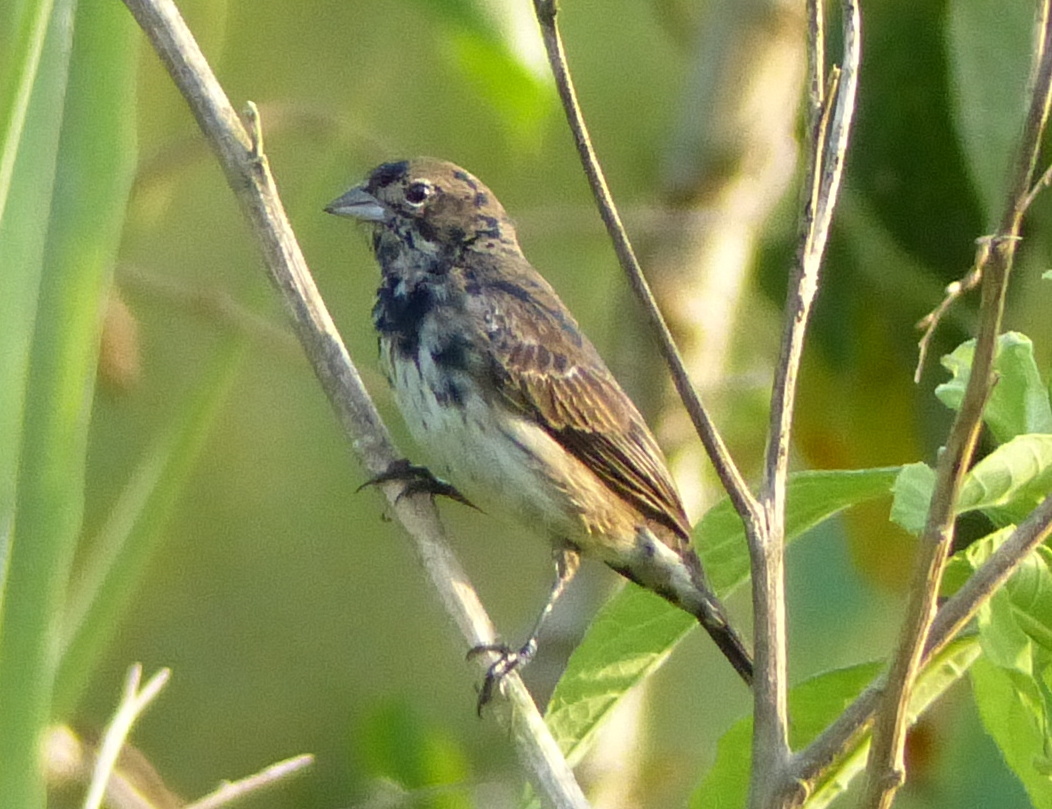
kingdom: Animalia
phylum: Chordata
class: Aves
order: Passeriformes
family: Thraupidae
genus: Volatinia
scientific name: Volatinia jacarina
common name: Blue-black grassquit
